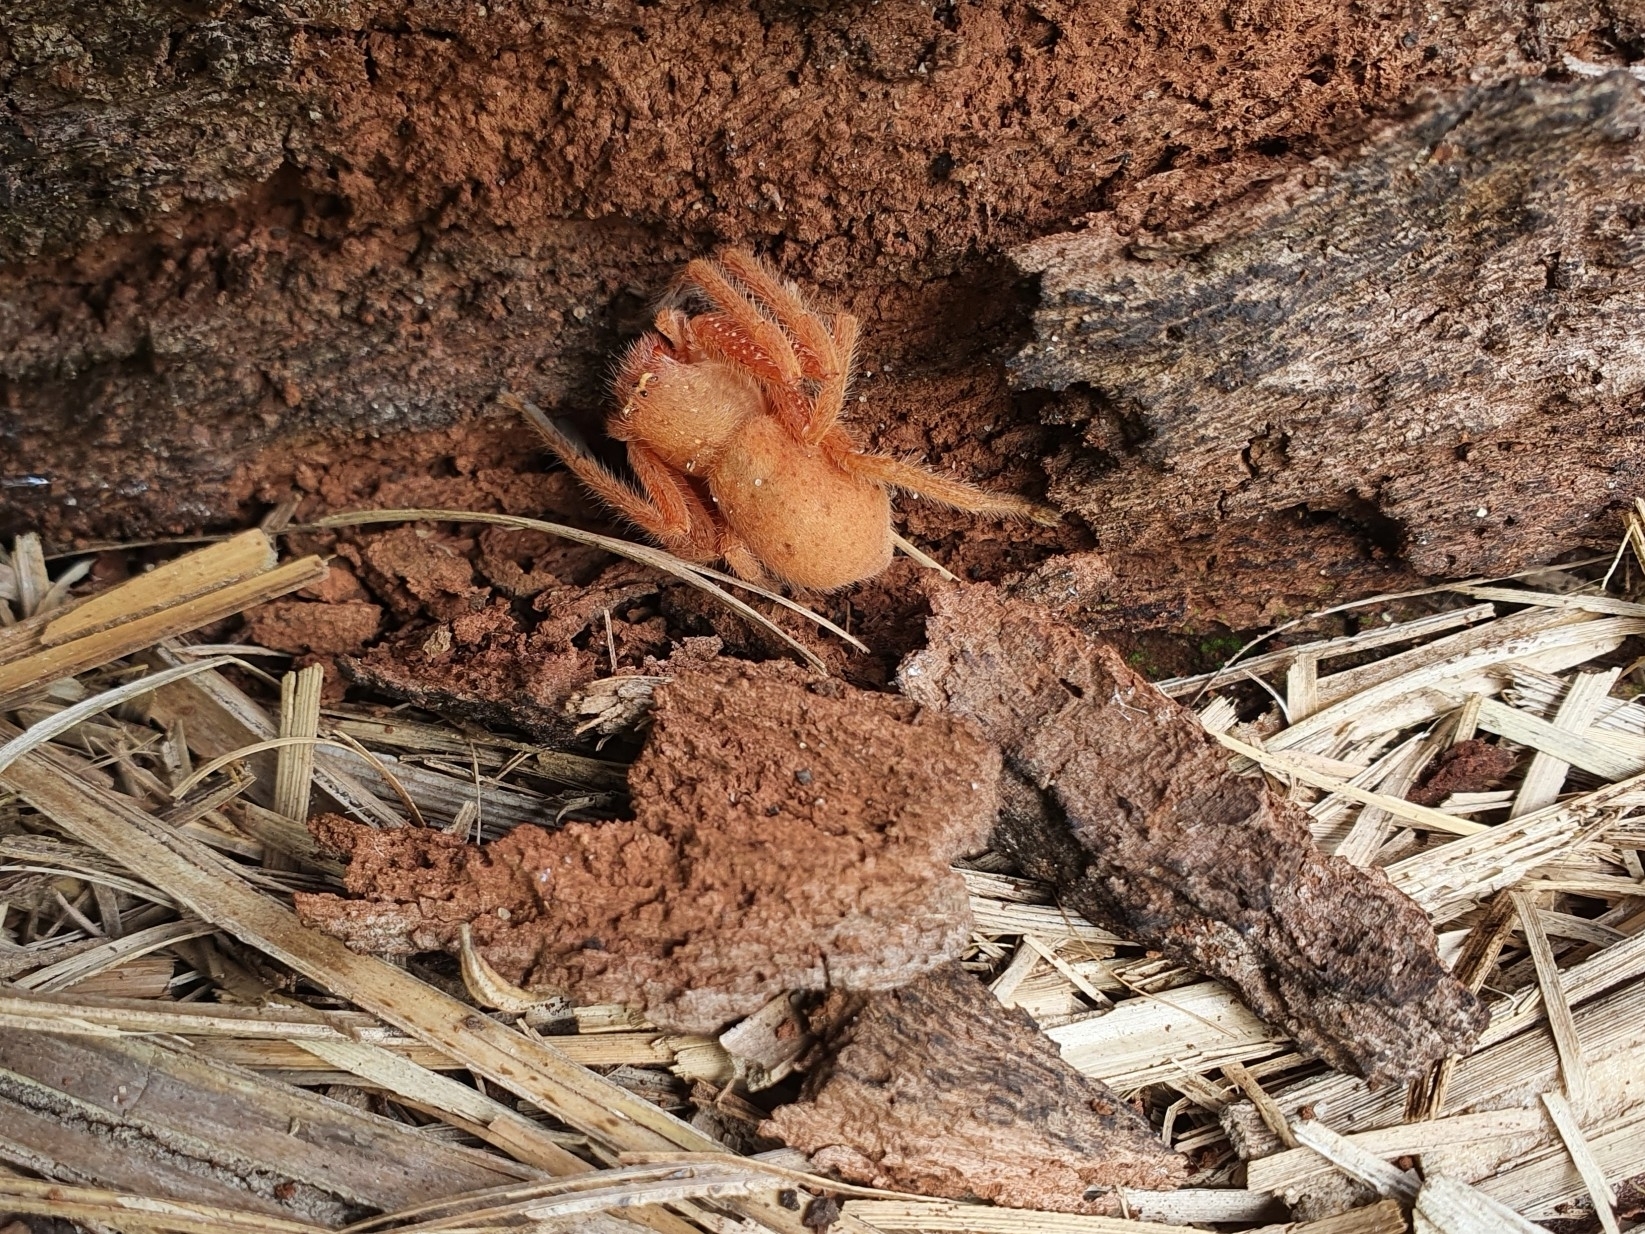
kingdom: Animalia
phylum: Arthropoda
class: Arachnida
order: Araneae
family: Sparassidae
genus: Neosparassus
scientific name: Neosparassus diana
